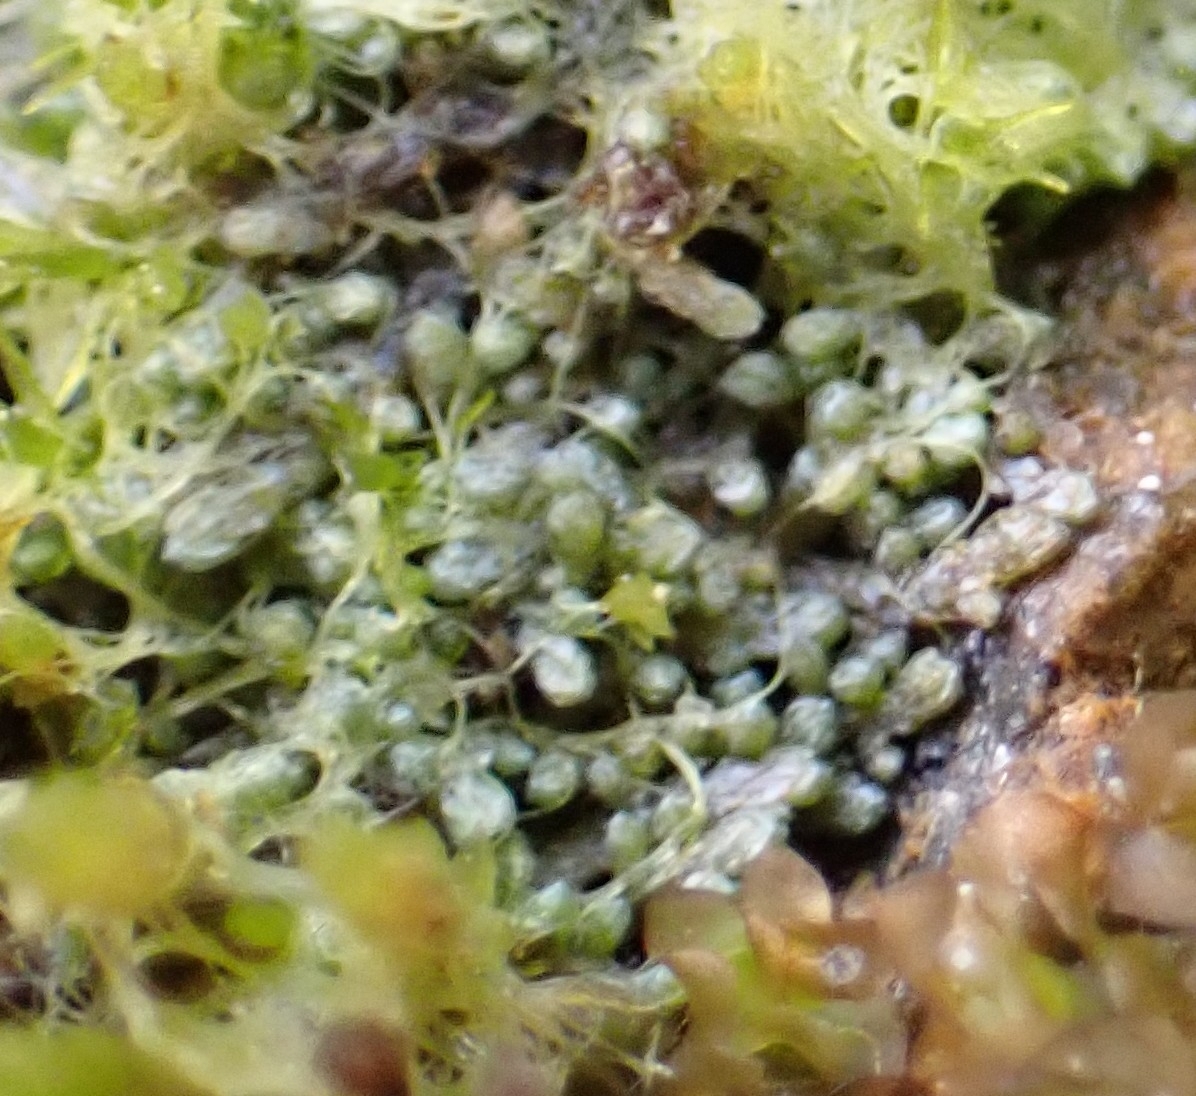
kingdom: Plantae
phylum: Marchantiophyta
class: Jungermanniopsida
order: Jungermanniales
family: Antheliaceae
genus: Anthelia
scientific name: Anthelia juratzkana
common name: Juratzka s silverwort
